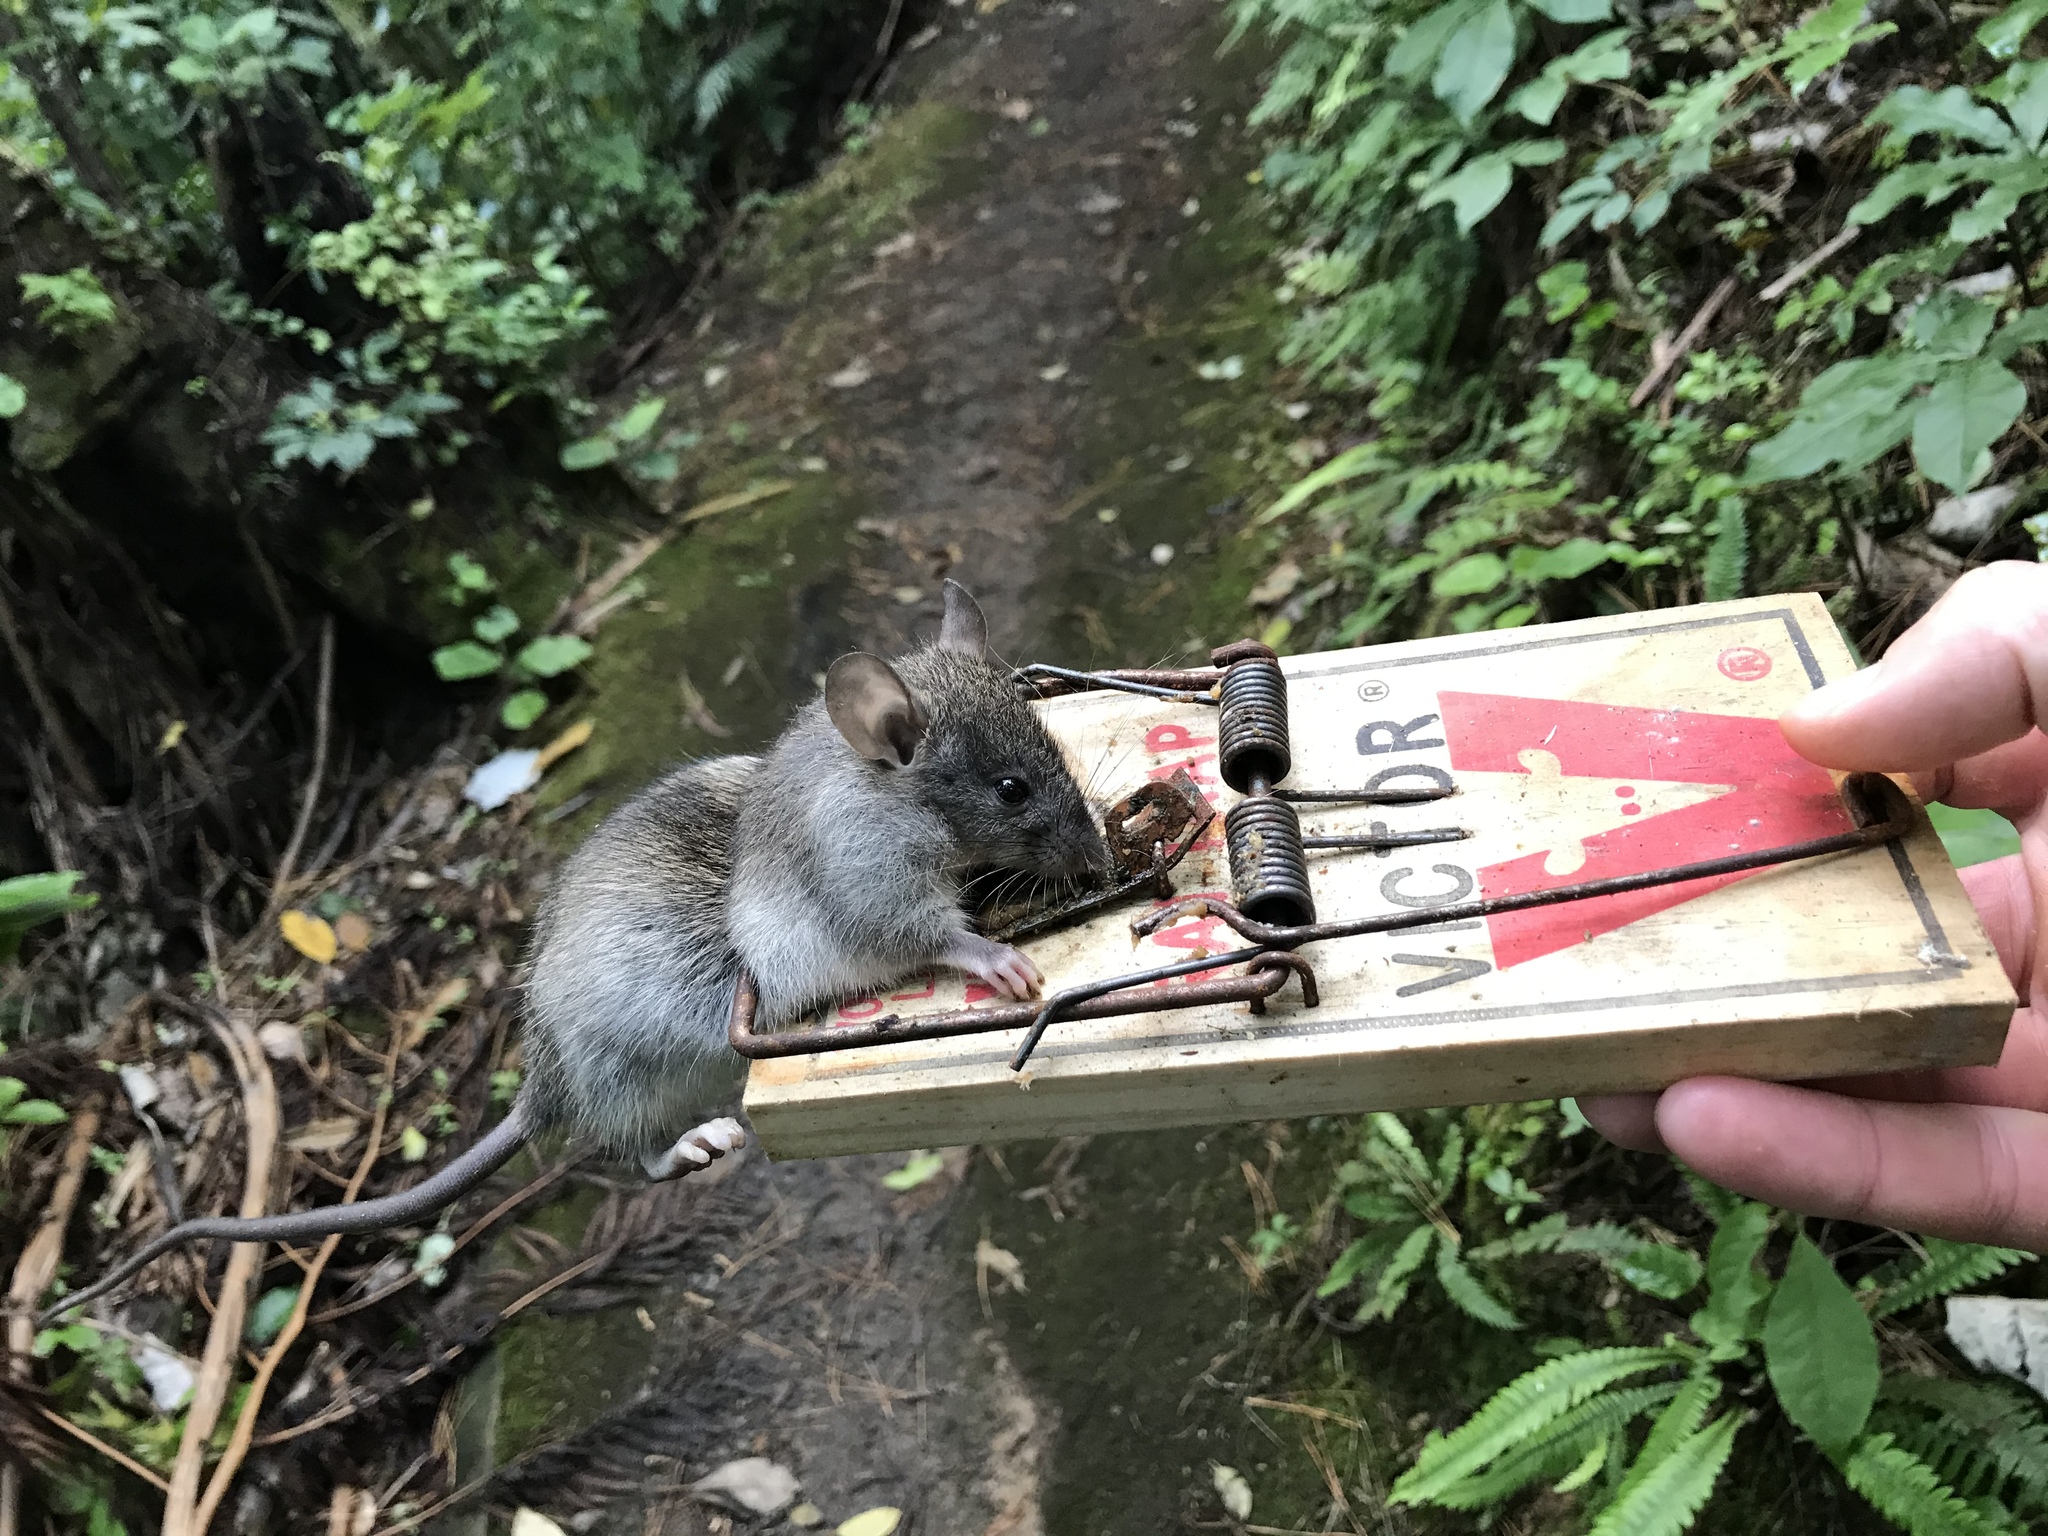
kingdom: Animalia
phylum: Chordata
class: Mammalia
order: Rodentia
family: Muridae
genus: Rattus
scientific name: Rattus rattus
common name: Black rat
